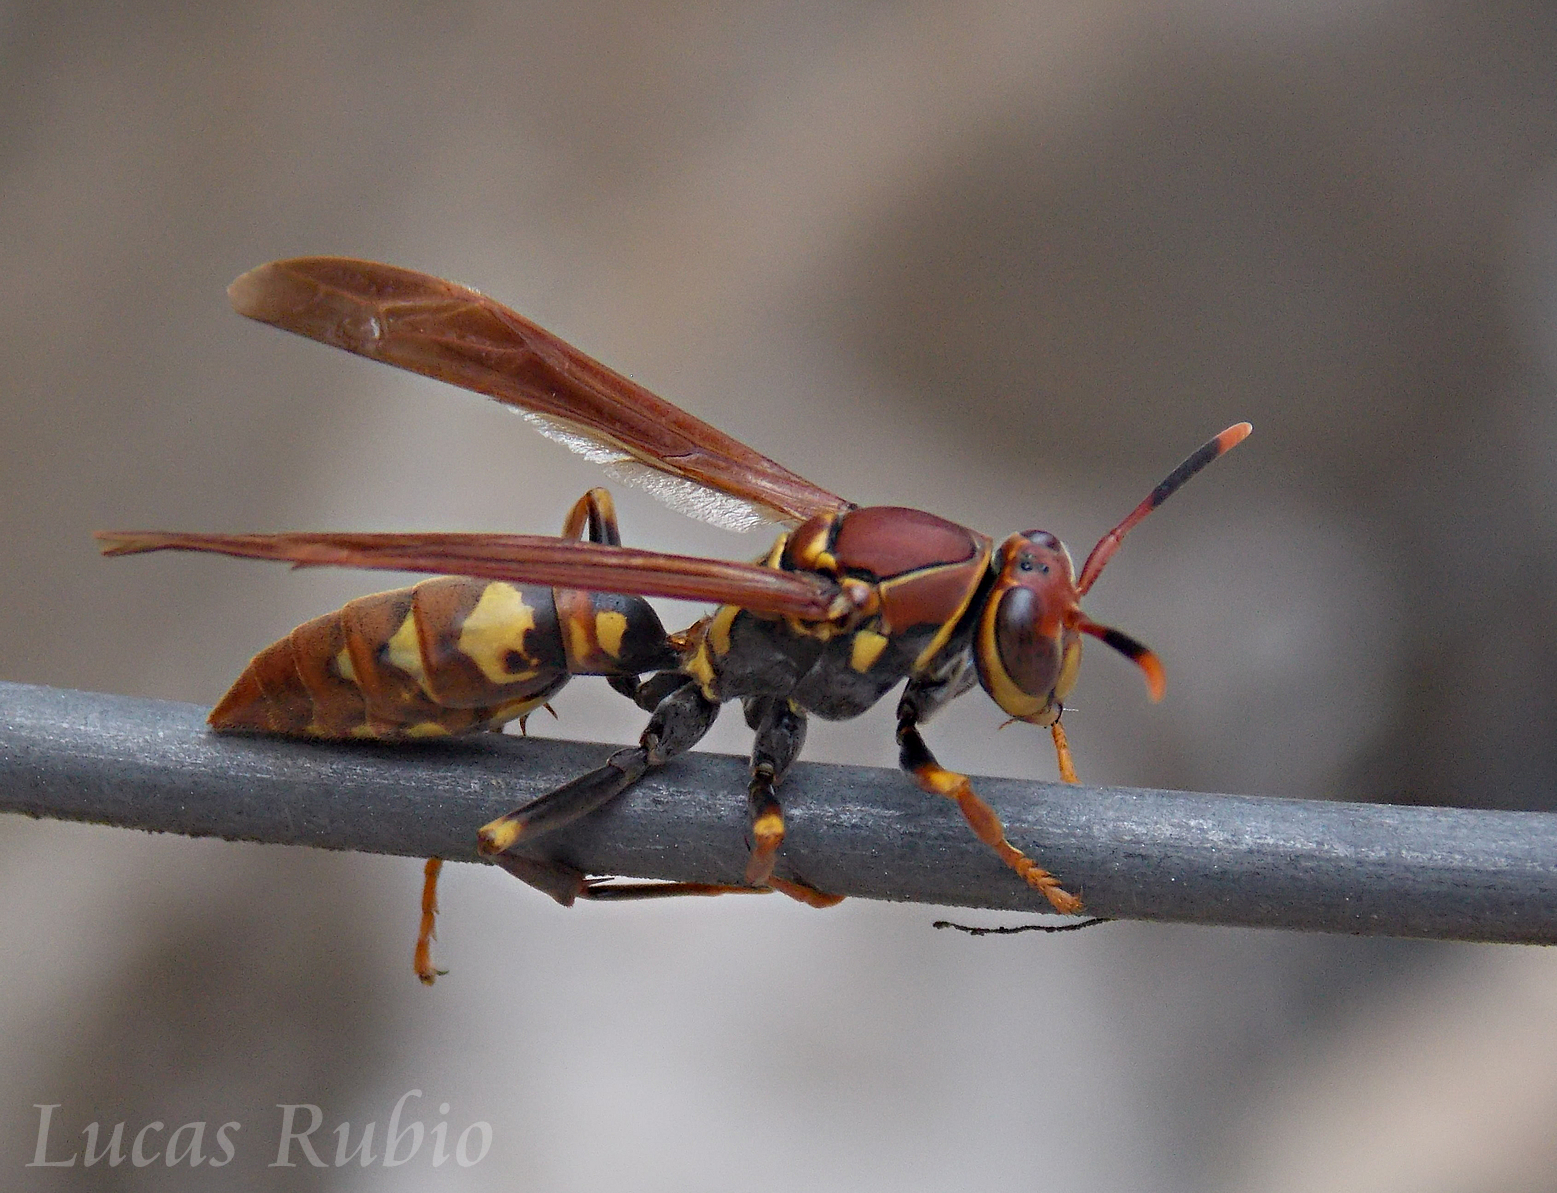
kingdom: Animalia
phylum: Arthropoda
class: Insecta
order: Hymenoptera
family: Eumenidae
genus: Polistes
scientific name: Polistes versicolor
